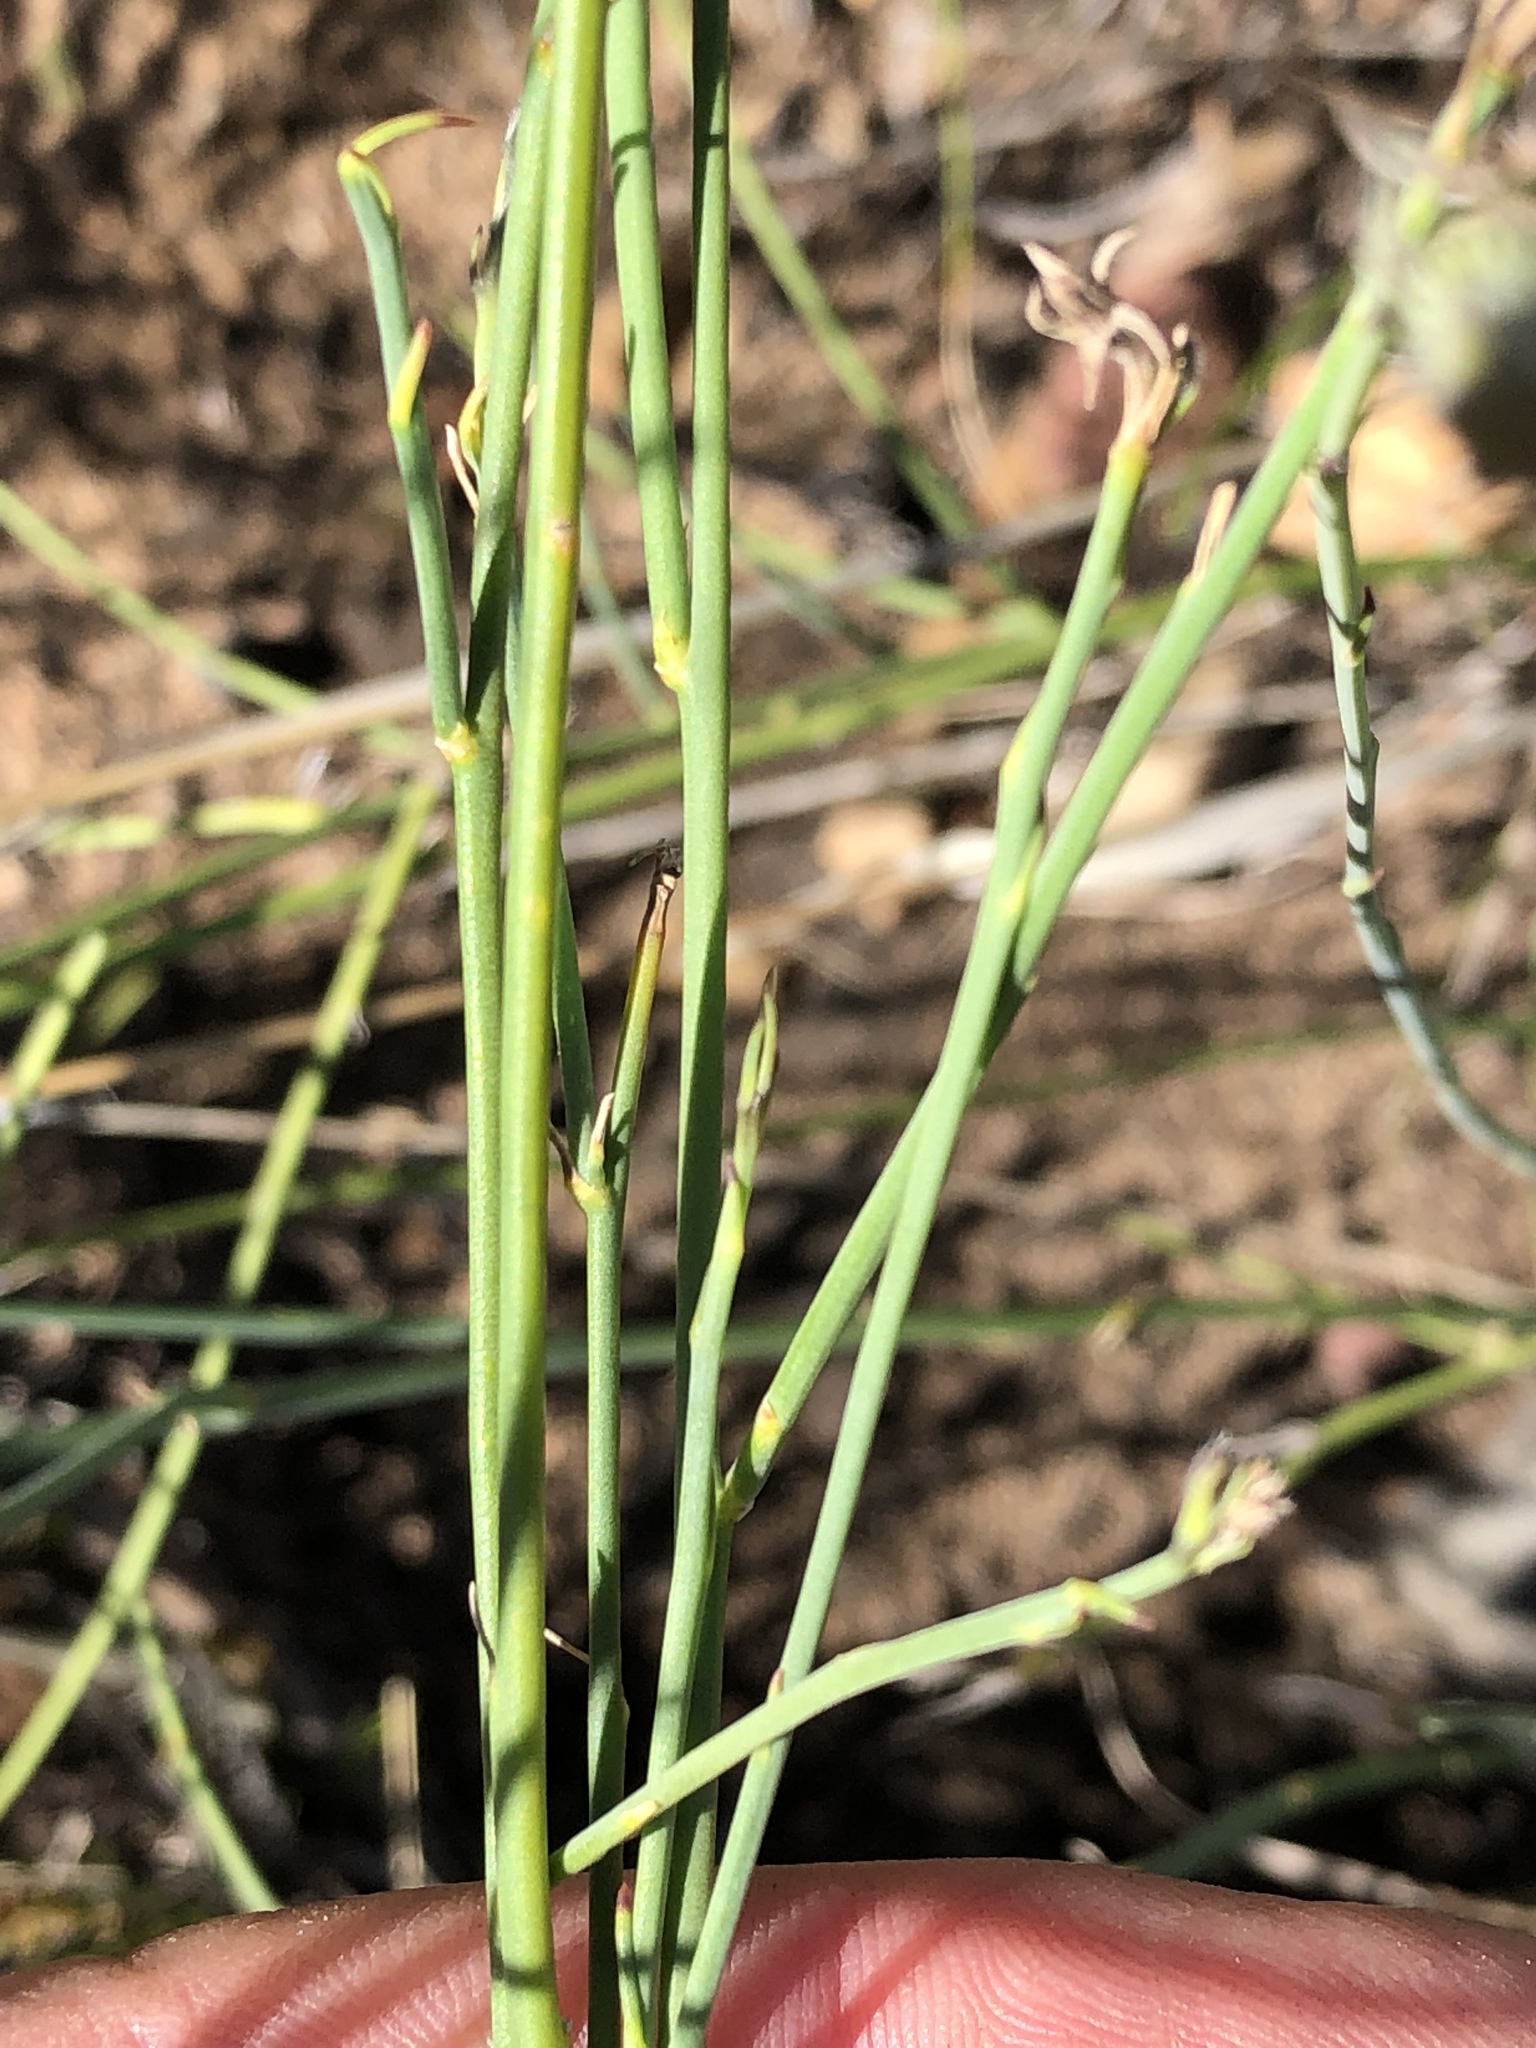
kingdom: Plantae
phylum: Tracheophyta
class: Magnoliopsida
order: Asterales
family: Campanulaceae
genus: Lobelia
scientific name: Lobelia linearis
